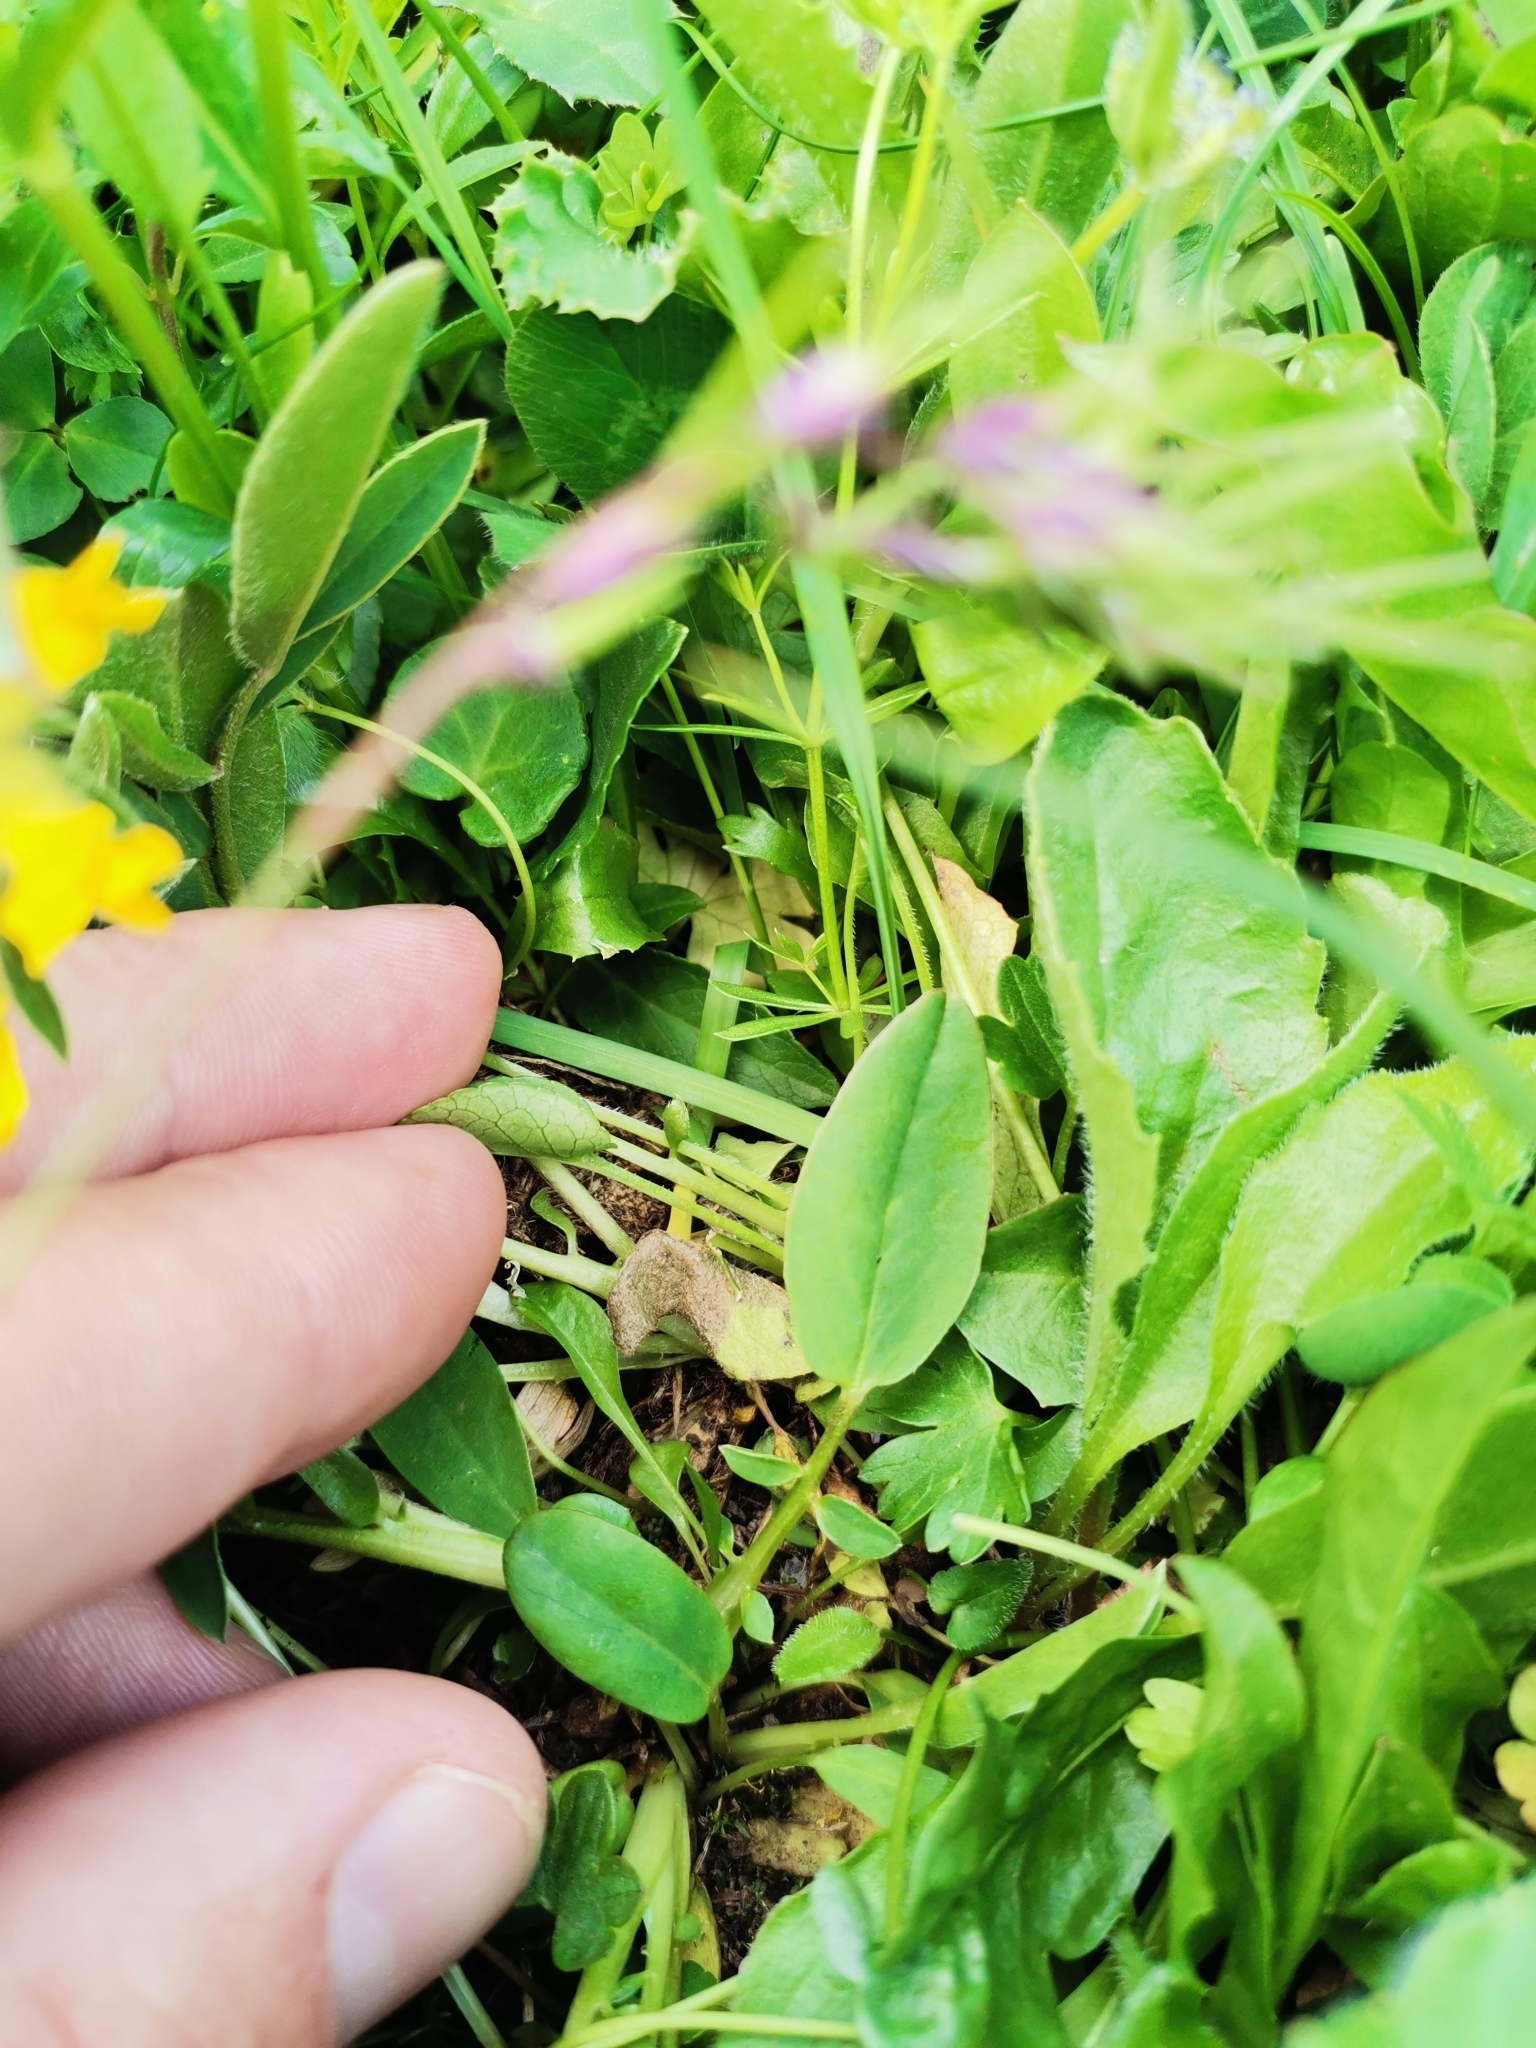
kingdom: Plantae
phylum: Tracheophyta
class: Magnoliopsida
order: Fabales
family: Fabaceae
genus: Anthyllis
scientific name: Anthyllis vulneraria
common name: Kidney vetch
